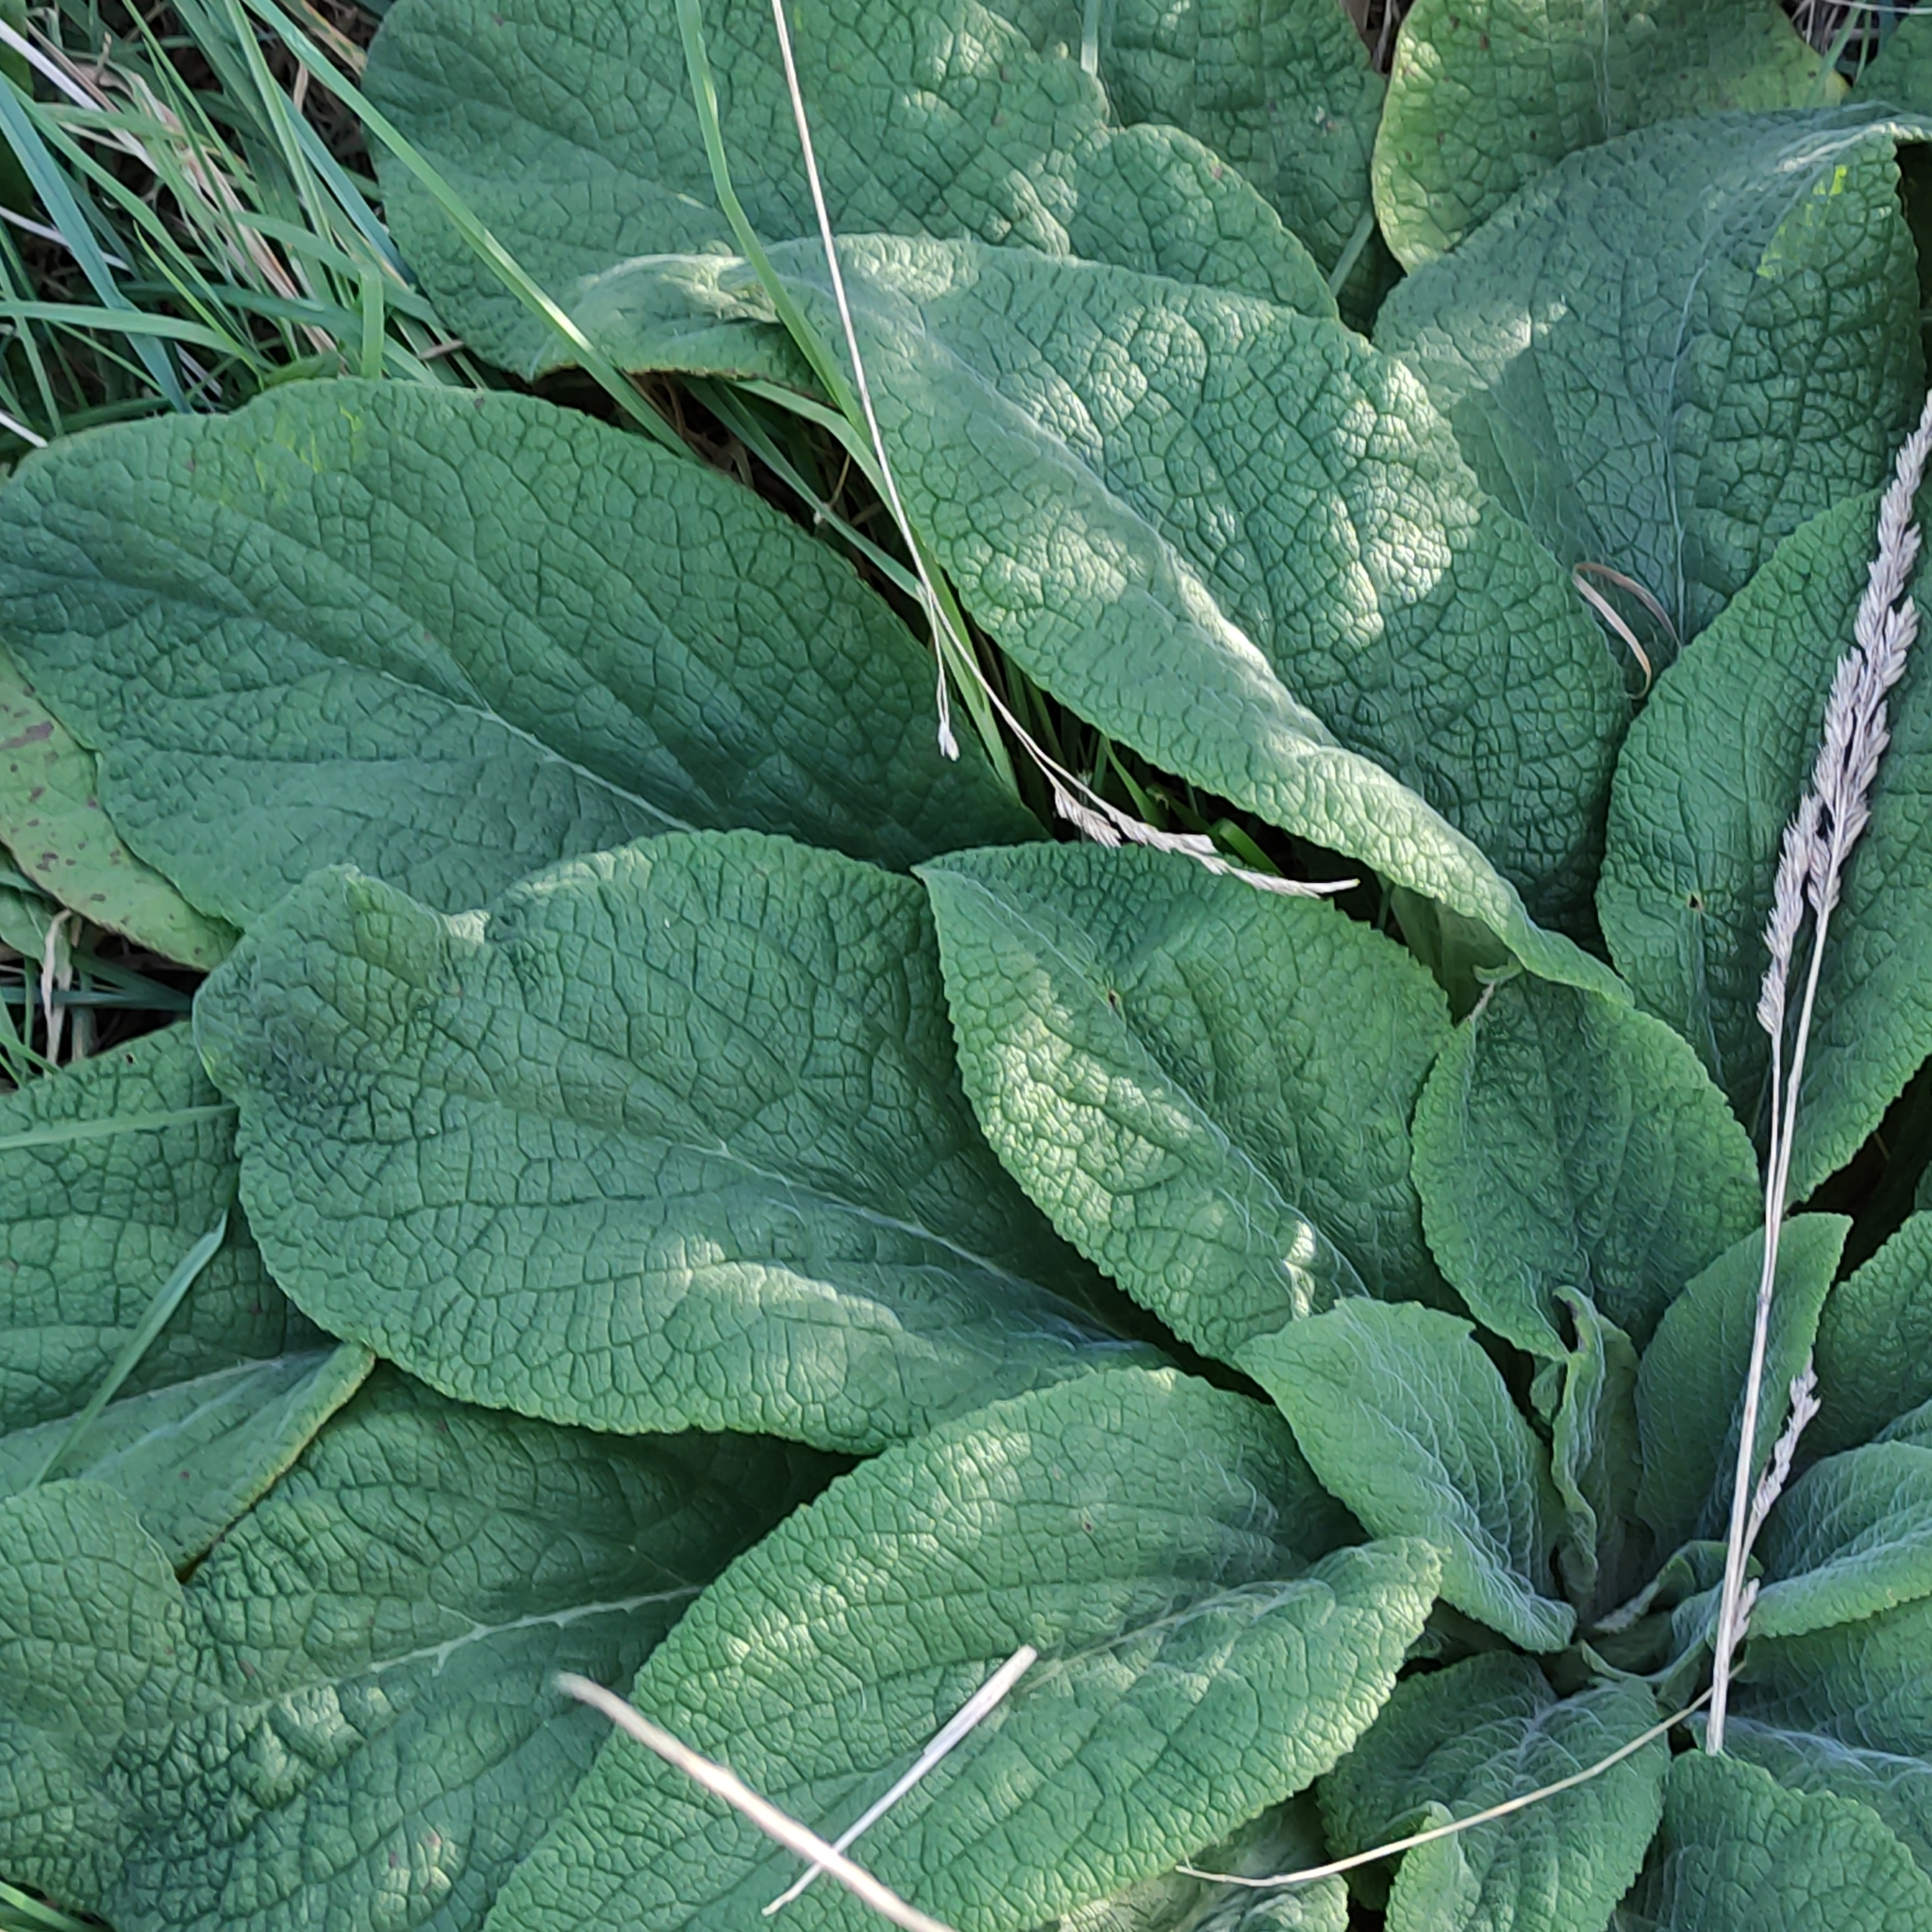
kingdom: Plantae
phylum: Tracheophyta
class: Magnoliopsida
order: Lamiales
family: Plantaginaceae
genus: Digitalis
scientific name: Digitalis purpurea
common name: Foxglove
